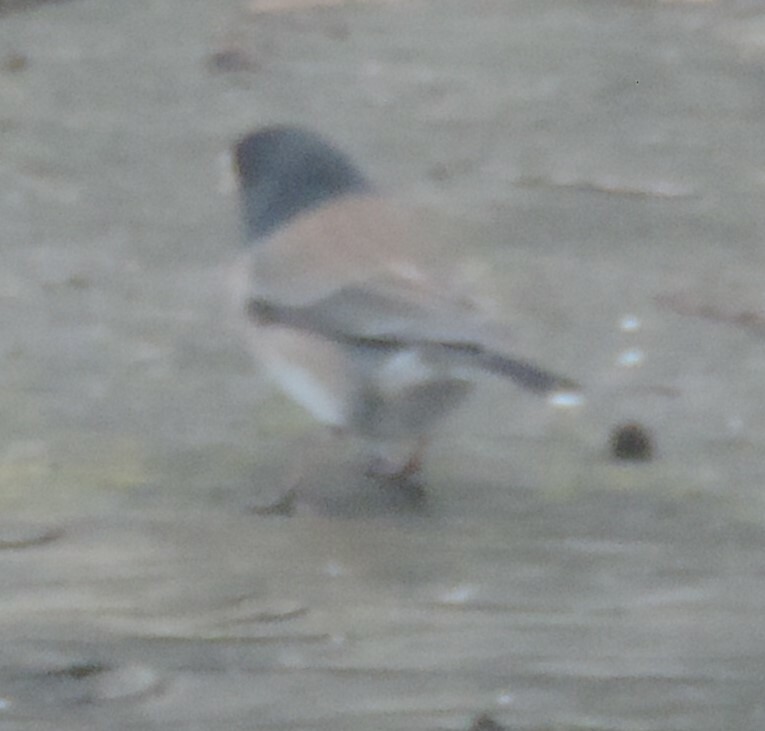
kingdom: Animalia
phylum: Chordata
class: Aves
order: Passeriformes
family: Passerellidae
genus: Junco
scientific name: Junco hyemalis
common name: Dark-eyed junco
